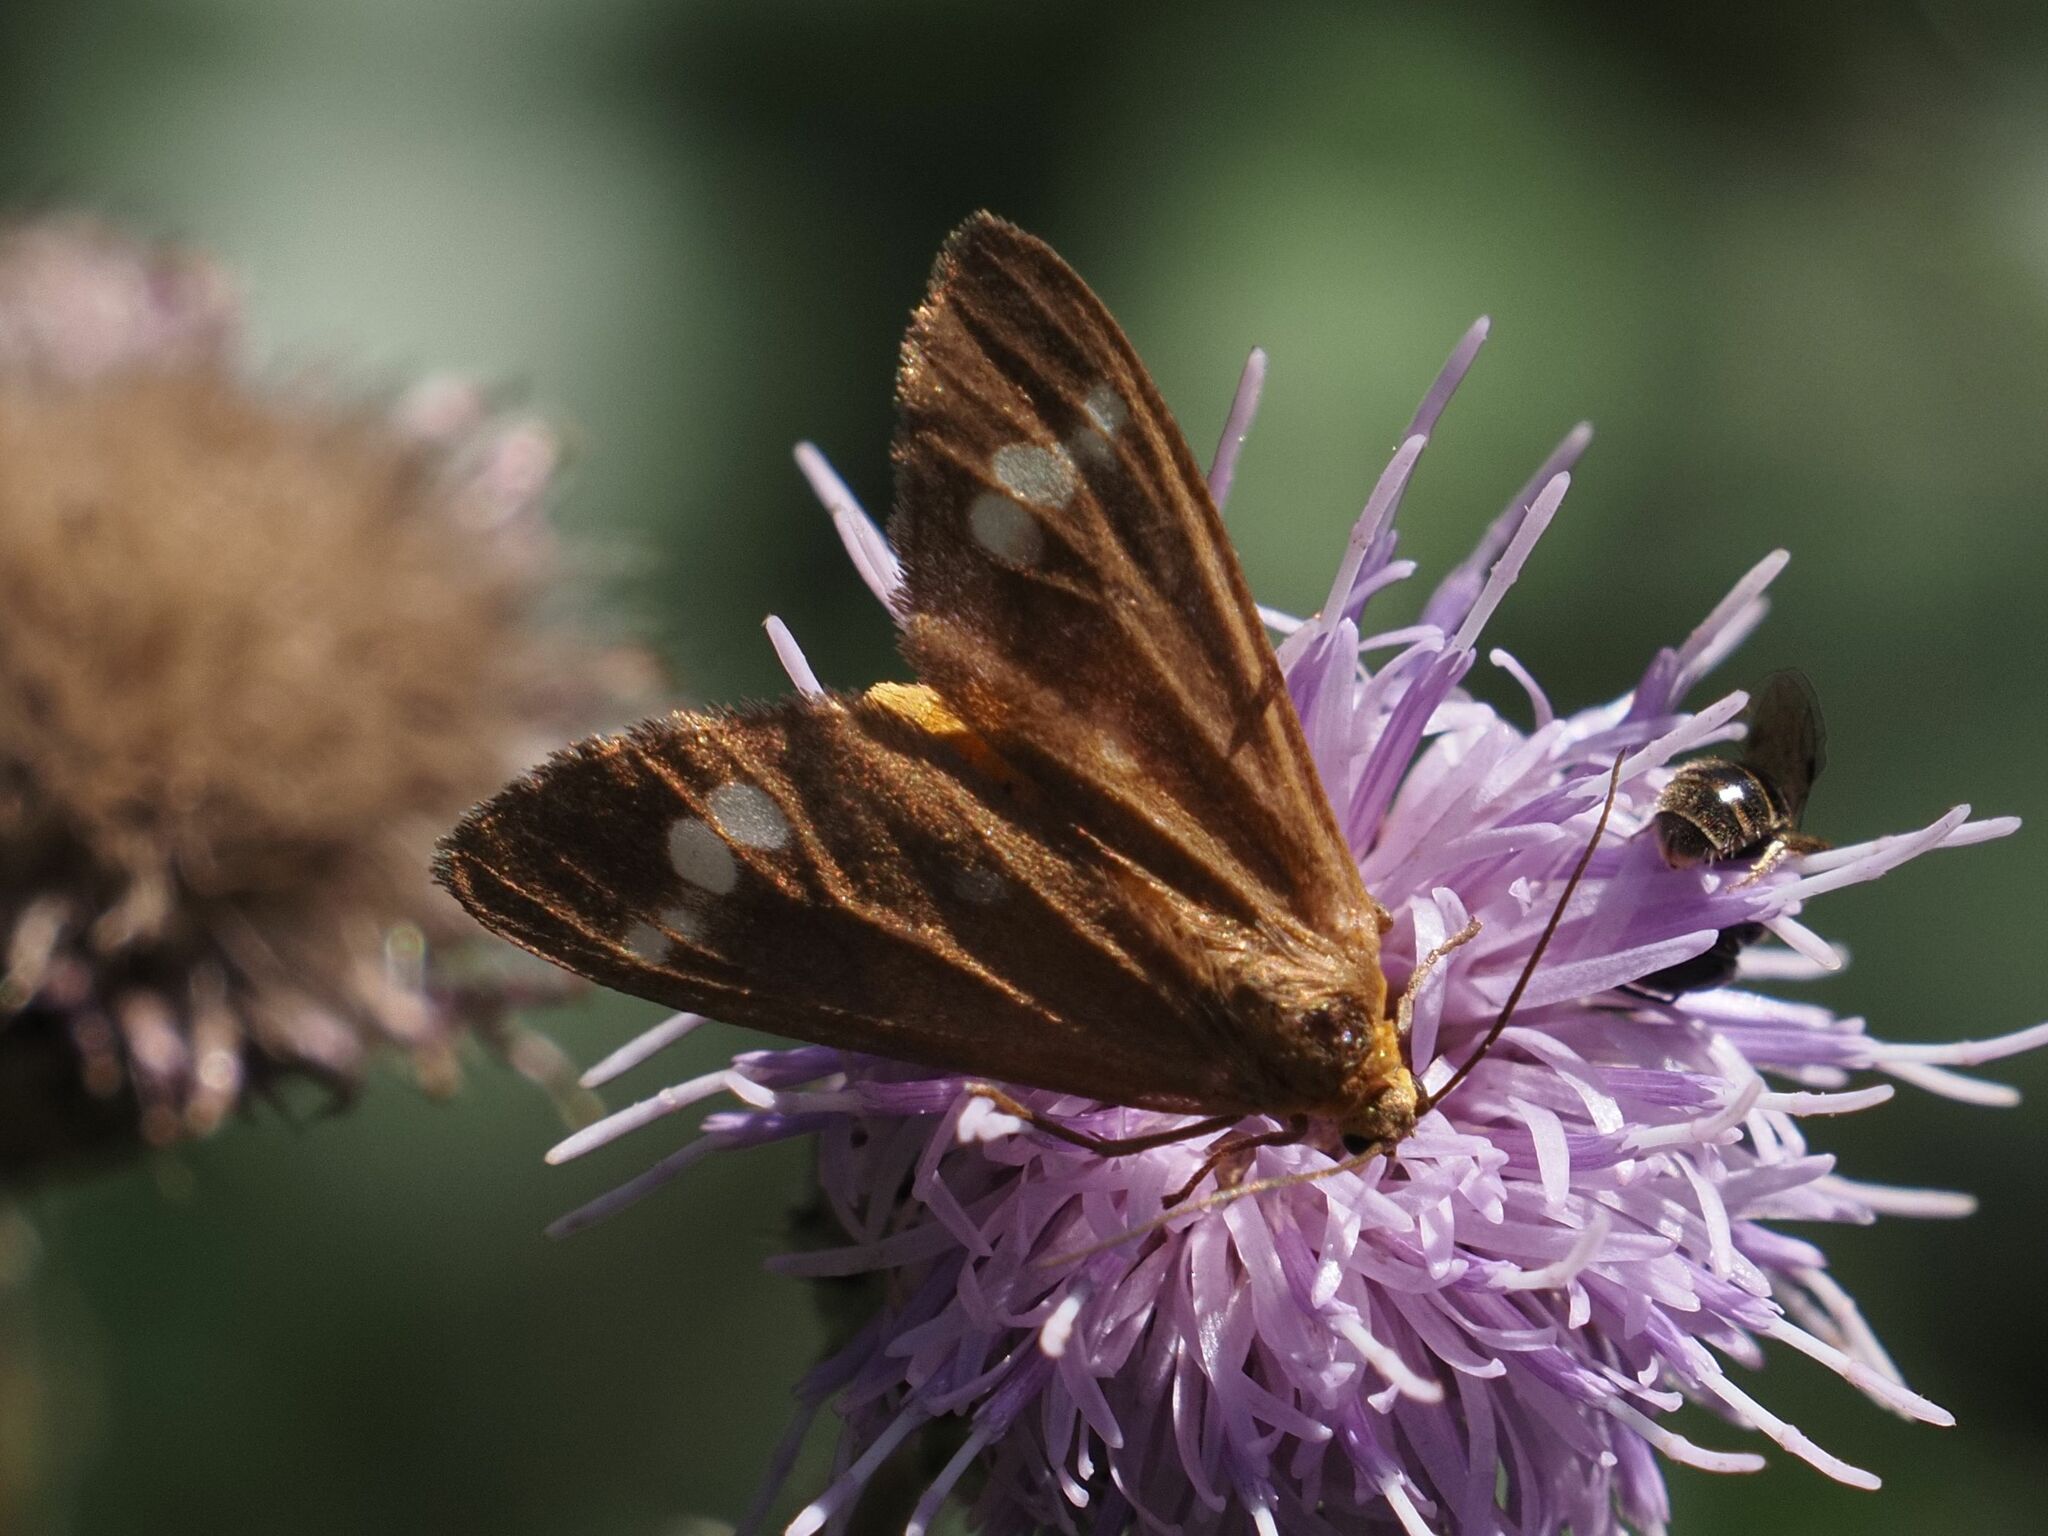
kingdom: Animalia
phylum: Arthropoda
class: Insecta
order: Lepidoptera
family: Erebidae
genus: Dysauxes
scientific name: Dysauxes ancilla
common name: The handmaid
